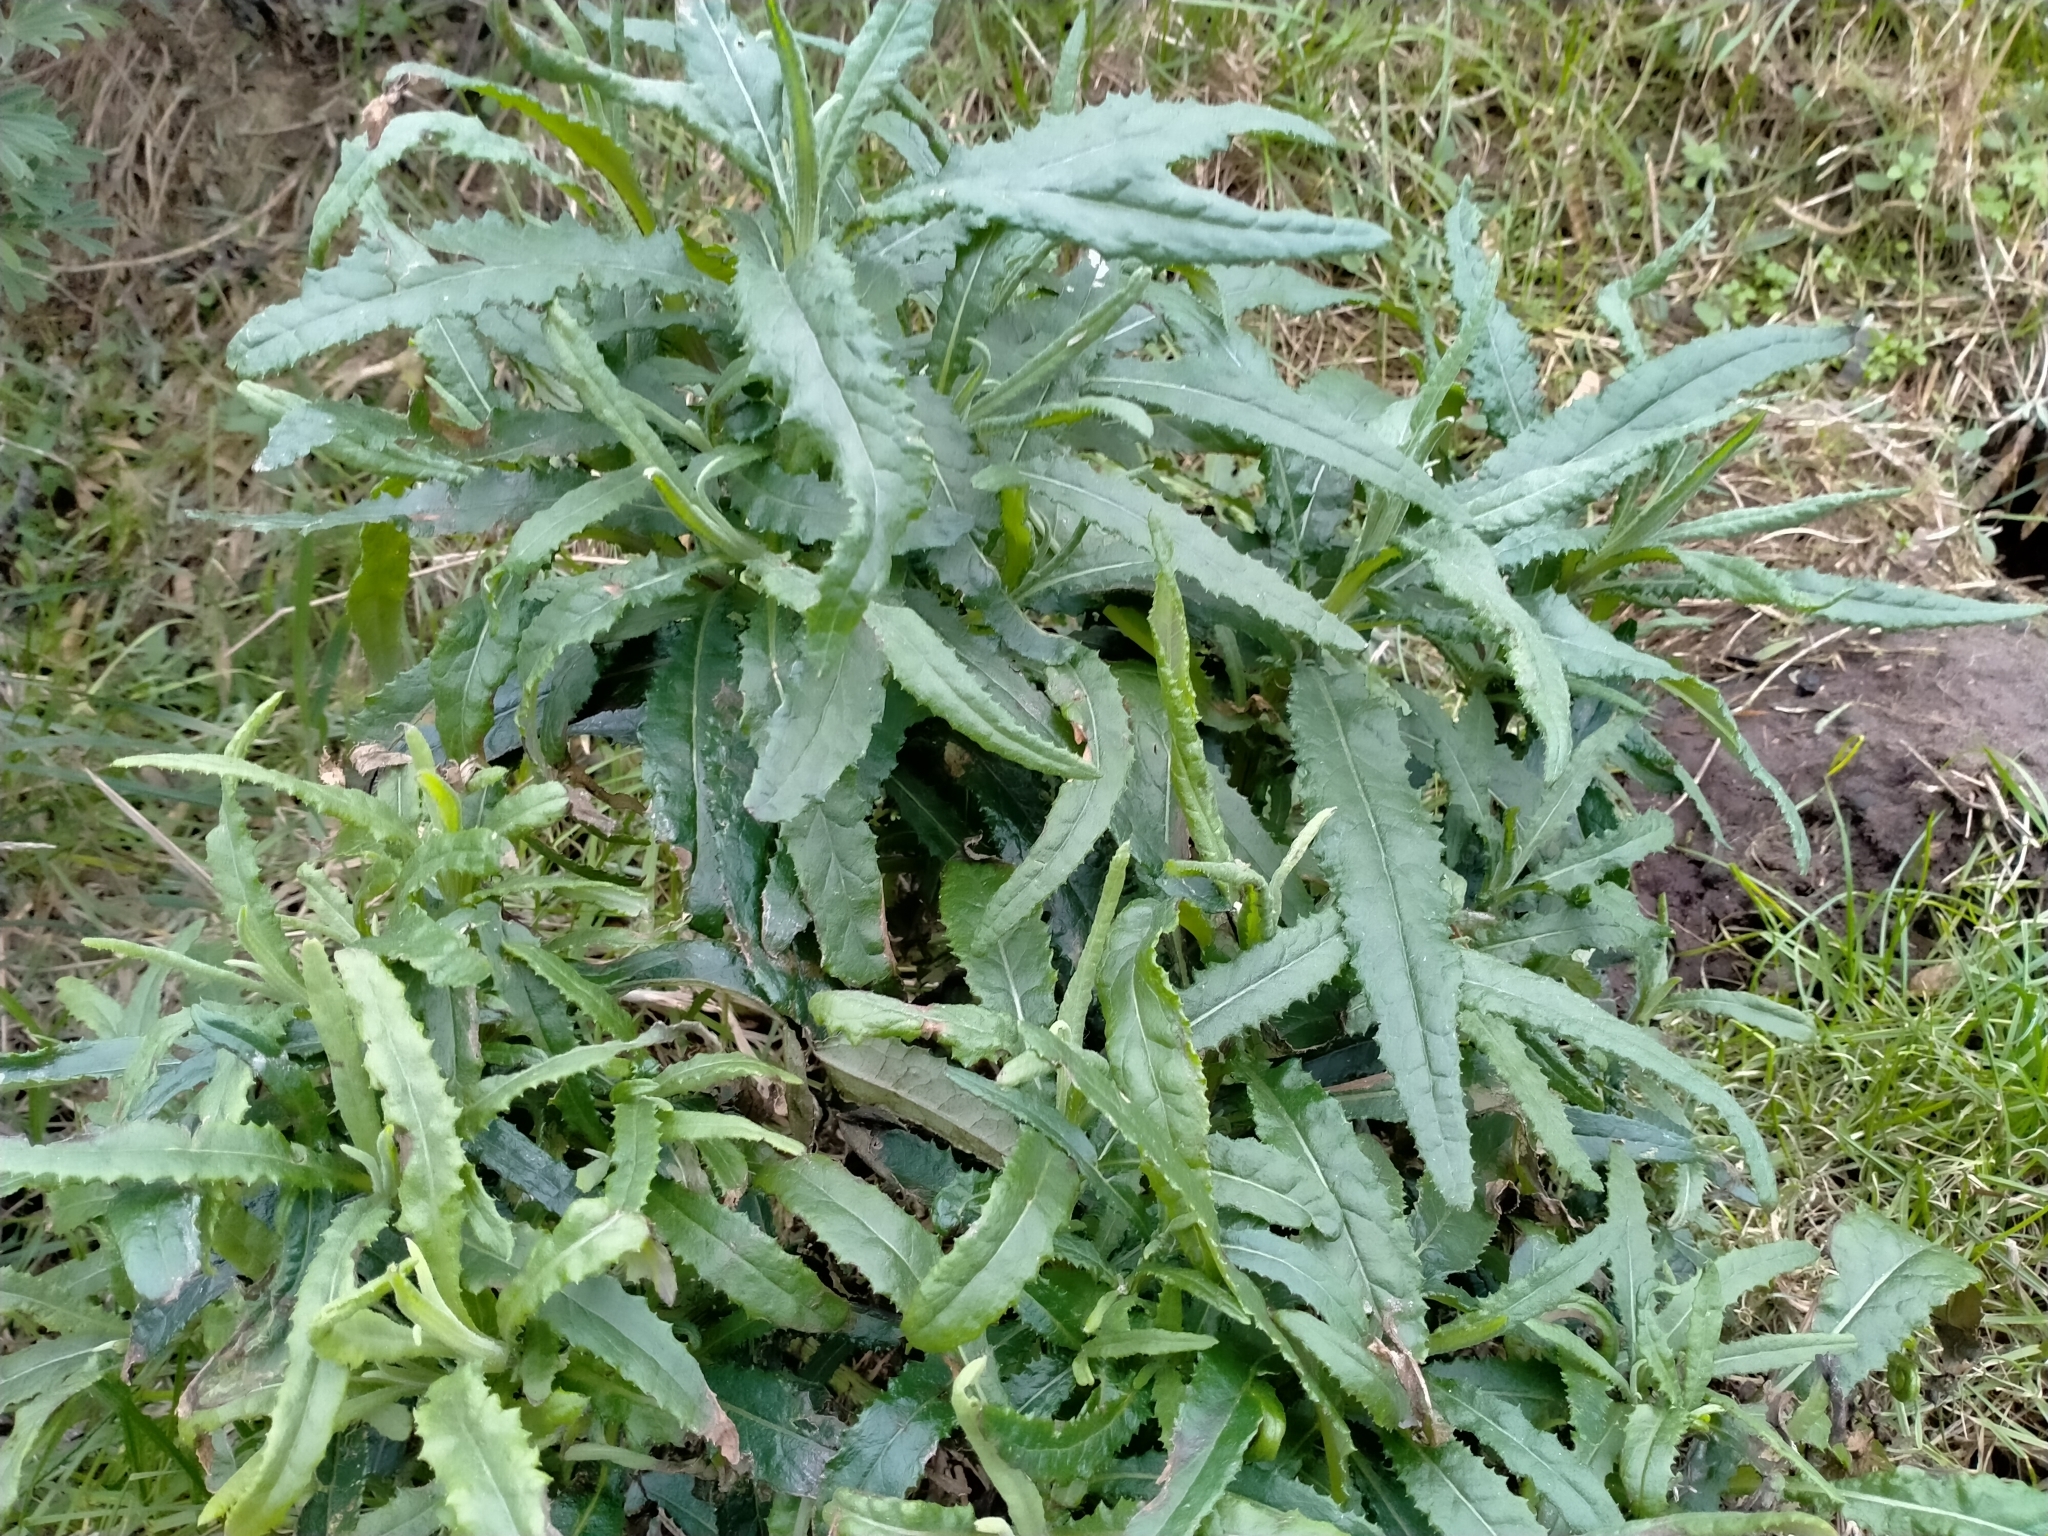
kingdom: Plantae
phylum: Tracheophyta
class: Magnoliopsida
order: Asterales
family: Asteraceae
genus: Senecio
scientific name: Senecio minimus
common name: Toothed fireweed
